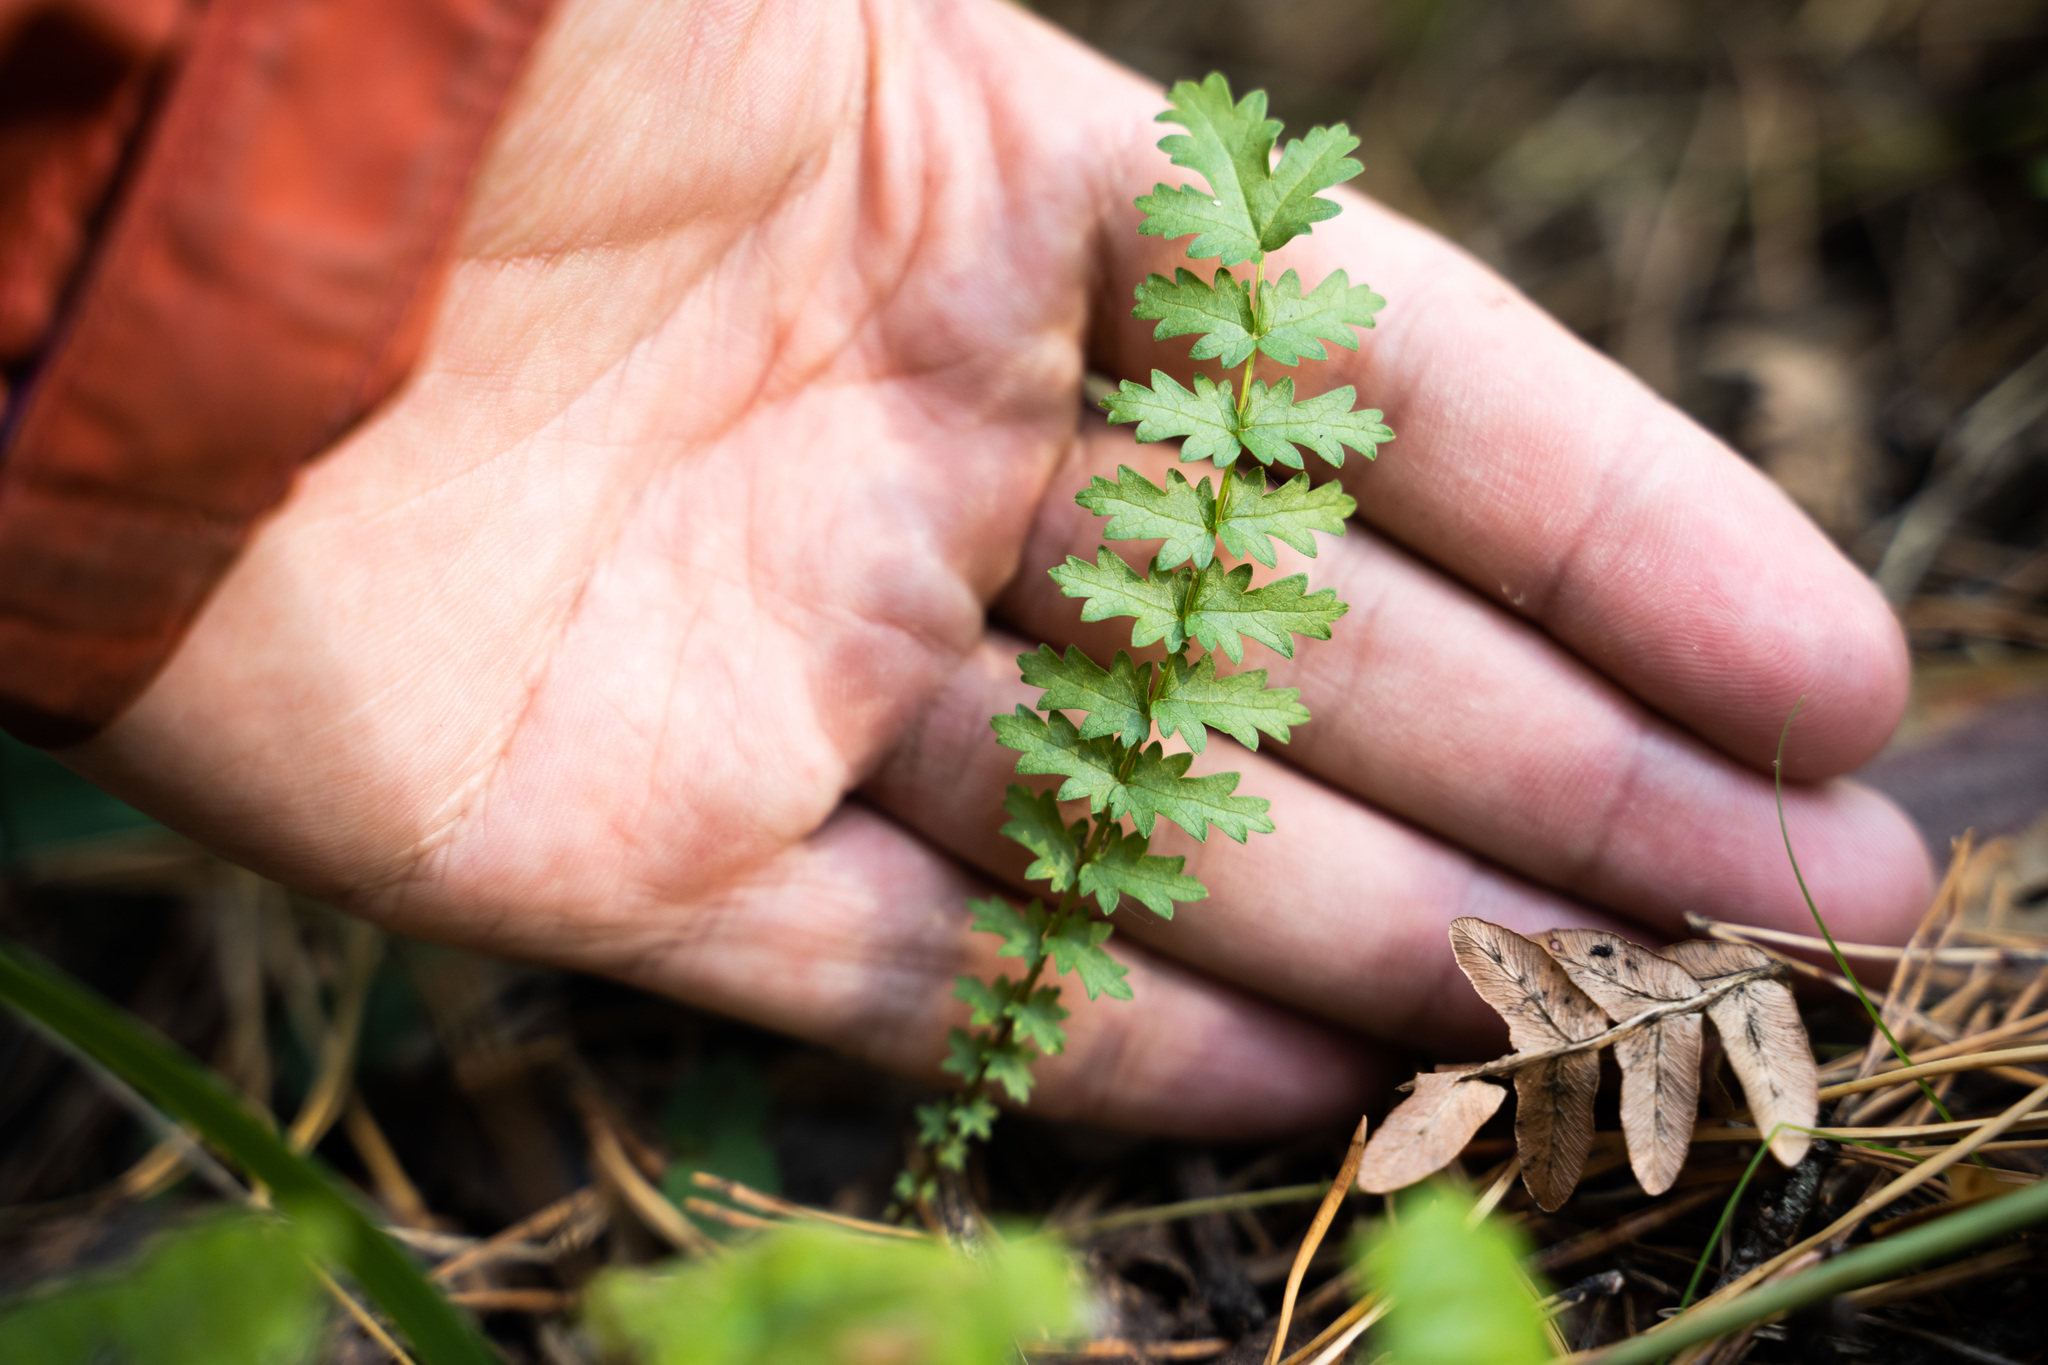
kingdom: Plantae
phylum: Tracheophyta
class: Magnoliopsida
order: Rosales
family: Rosaceae
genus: Filipendula
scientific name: Filipendula vulgaris
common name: Dropwort
